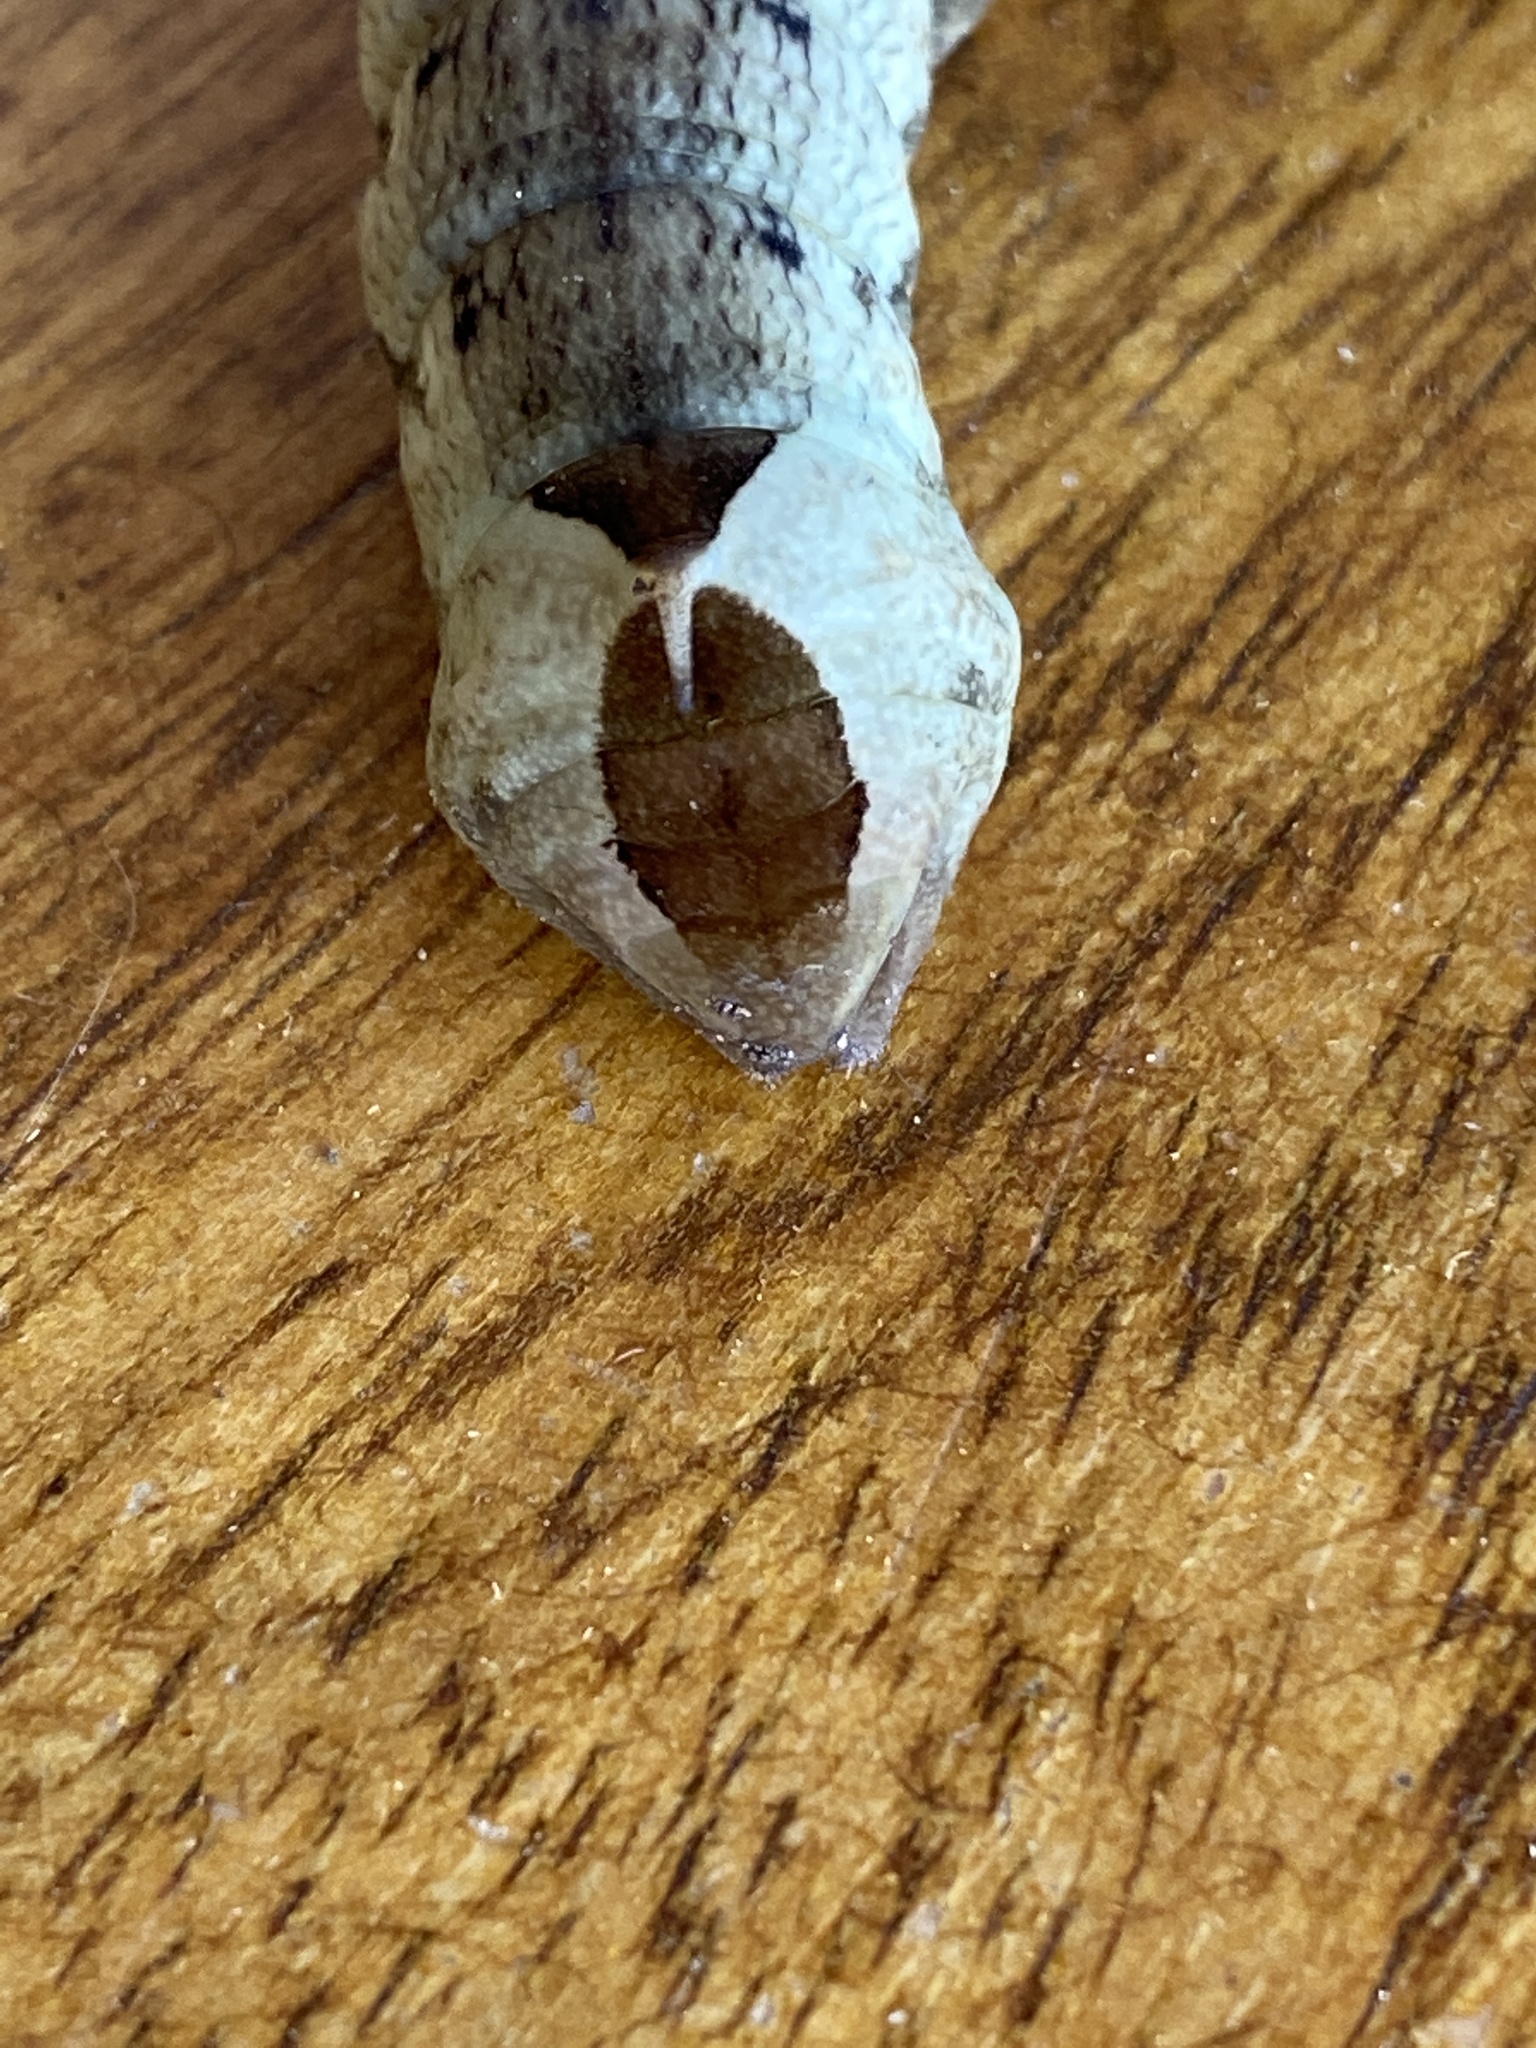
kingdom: Animalia
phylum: Arthropoda
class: Insecta
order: Lepidoptera
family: Sphingidae
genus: Hippotion
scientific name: Hippotion eson
